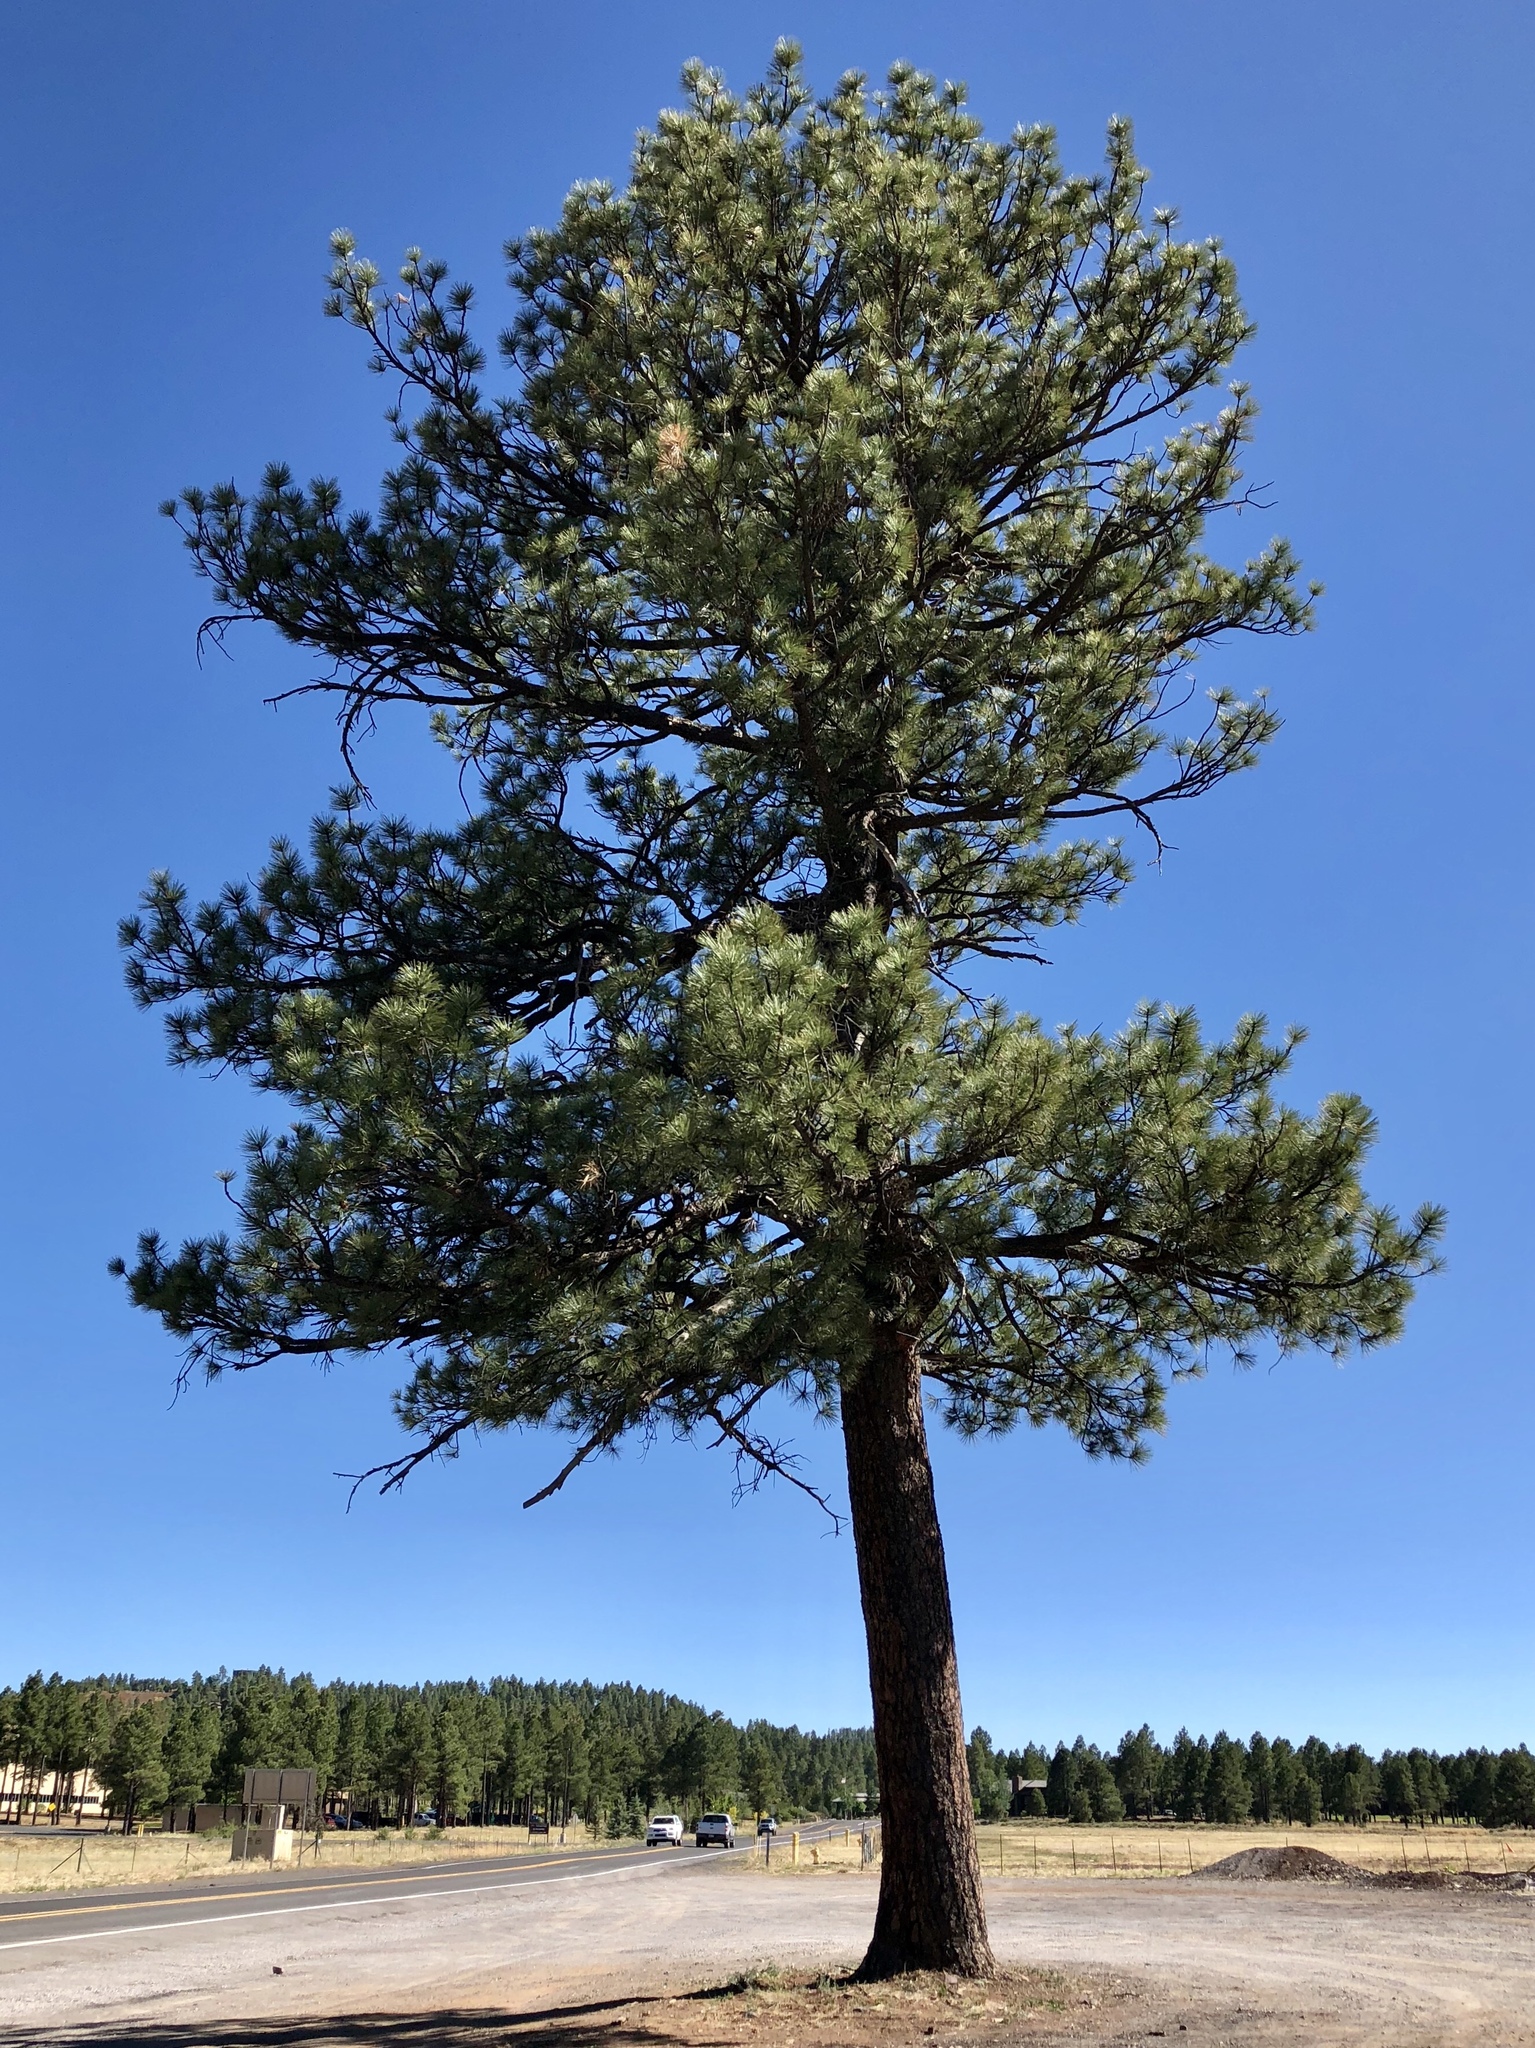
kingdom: Plantae
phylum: Tracheophyta
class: Pinopsida
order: Pinales
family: Pinaceae
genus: Pinus
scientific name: Pinus ponderosa
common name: Western yellow-pine
